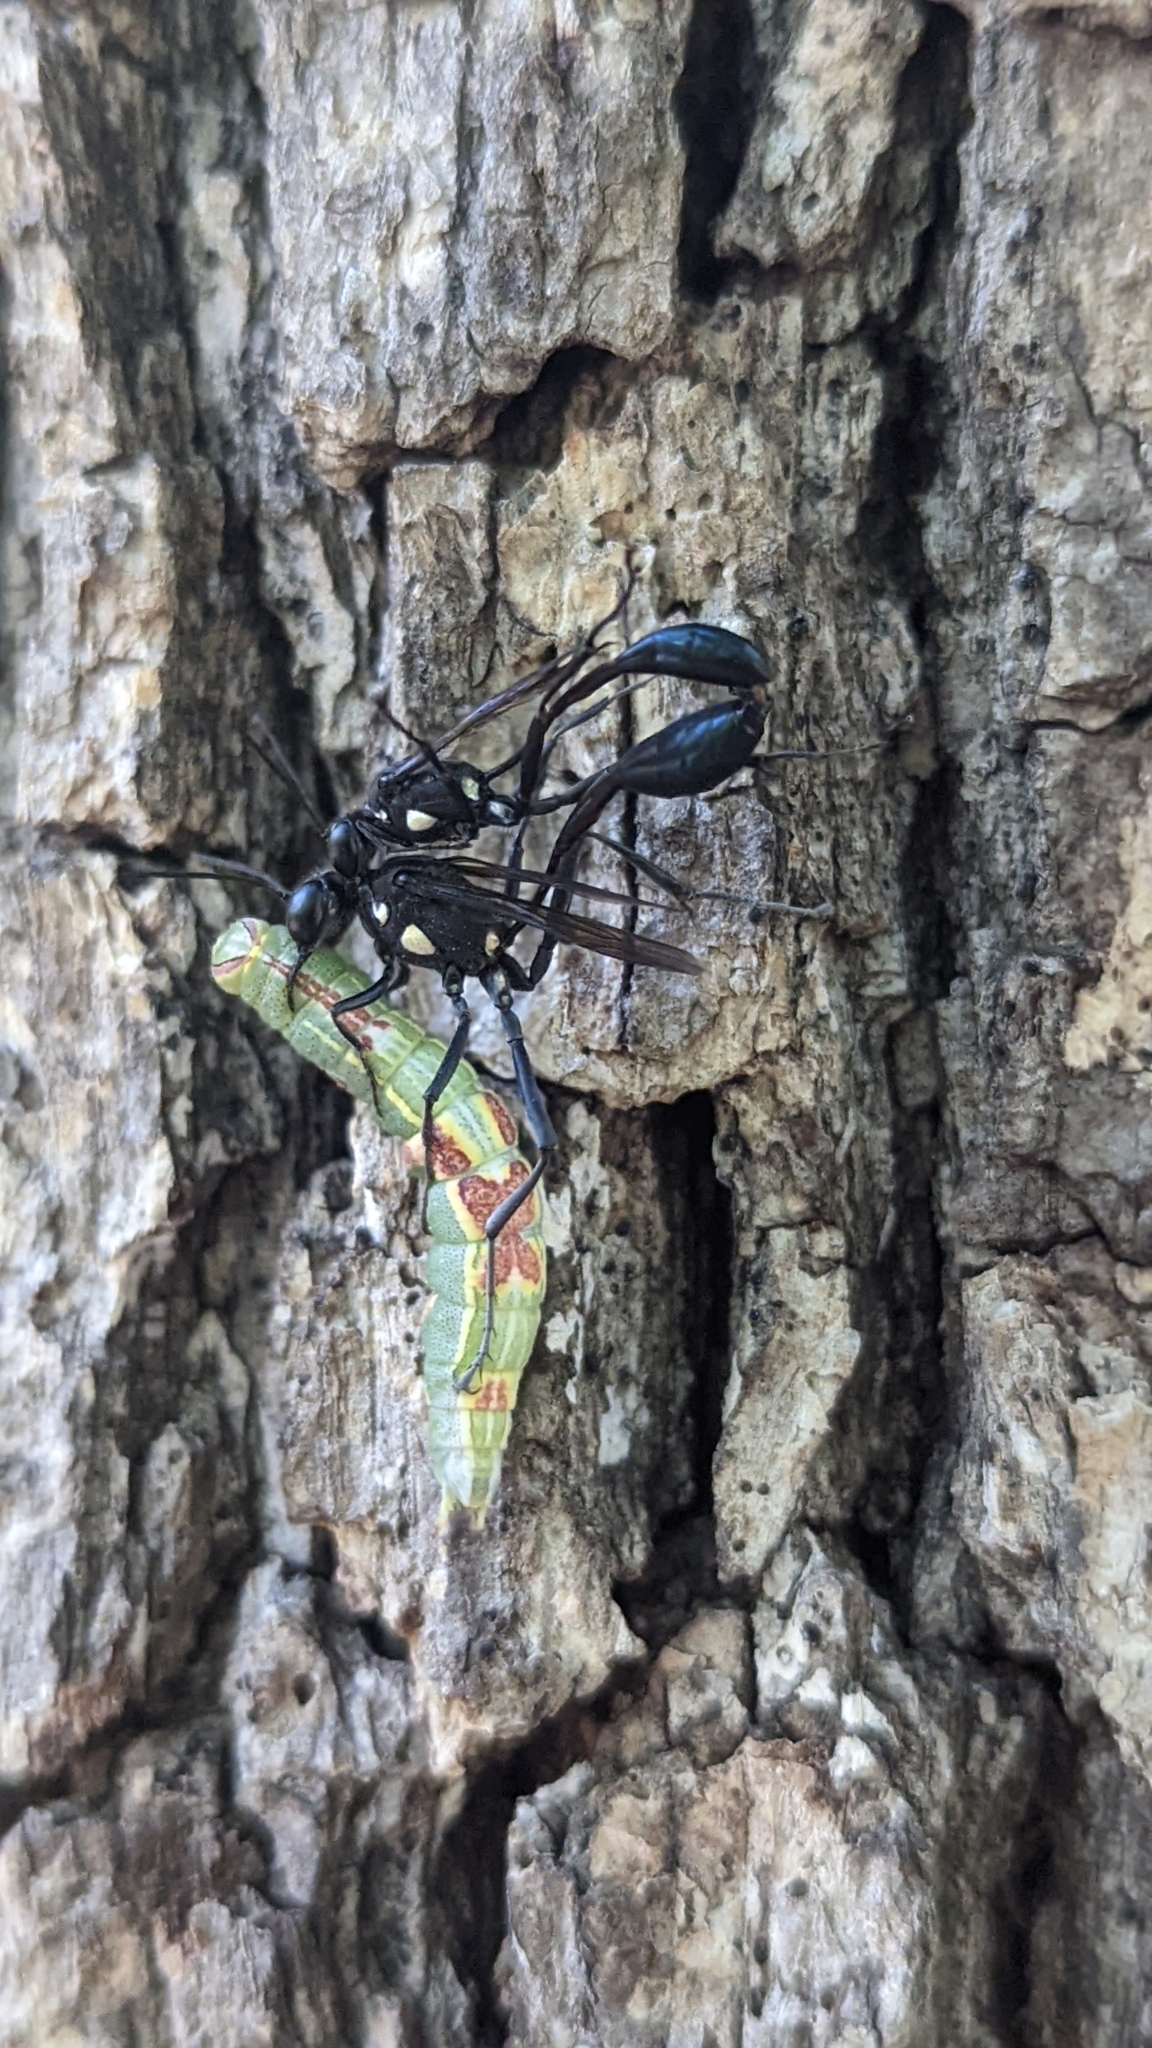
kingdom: Animalia
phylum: Arthropoda
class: Insecta
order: Hymenoptera
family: Sphecidae
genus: Eremnophila
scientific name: Eremnophila aureonotata
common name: Gold-marked thread-waisted wasp
